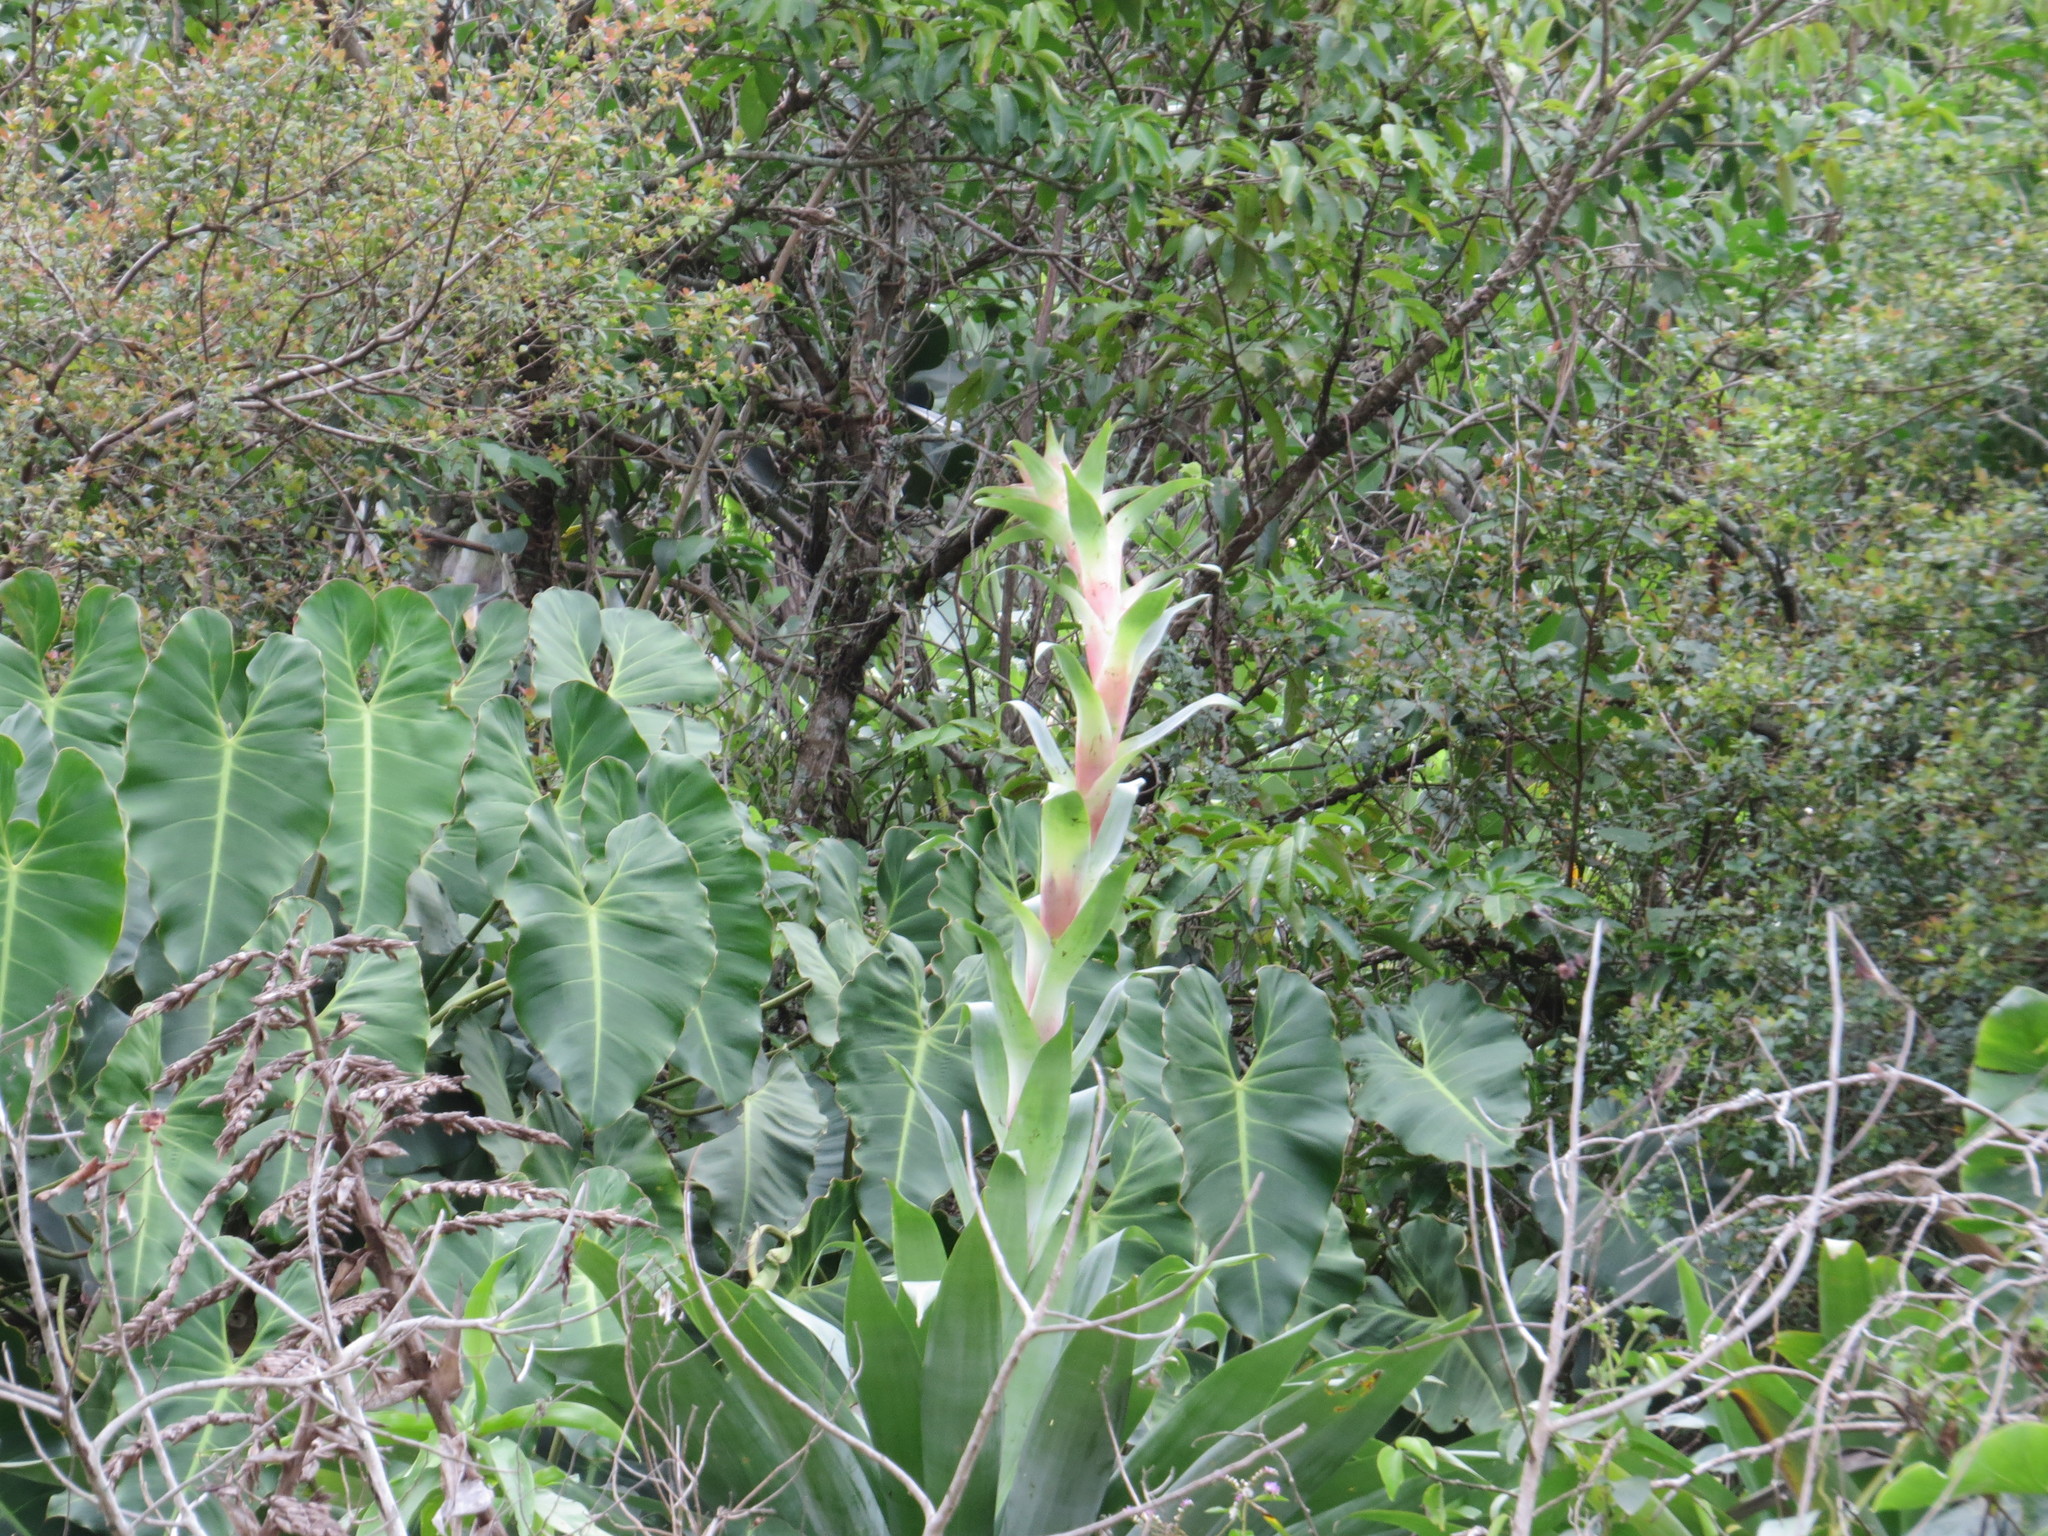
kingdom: Plantae
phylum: Tracheophyta
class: Liliopsida
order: Poales
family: Bromeliaceae
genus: Alcantarea
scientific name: Alcantarea glaziouana
